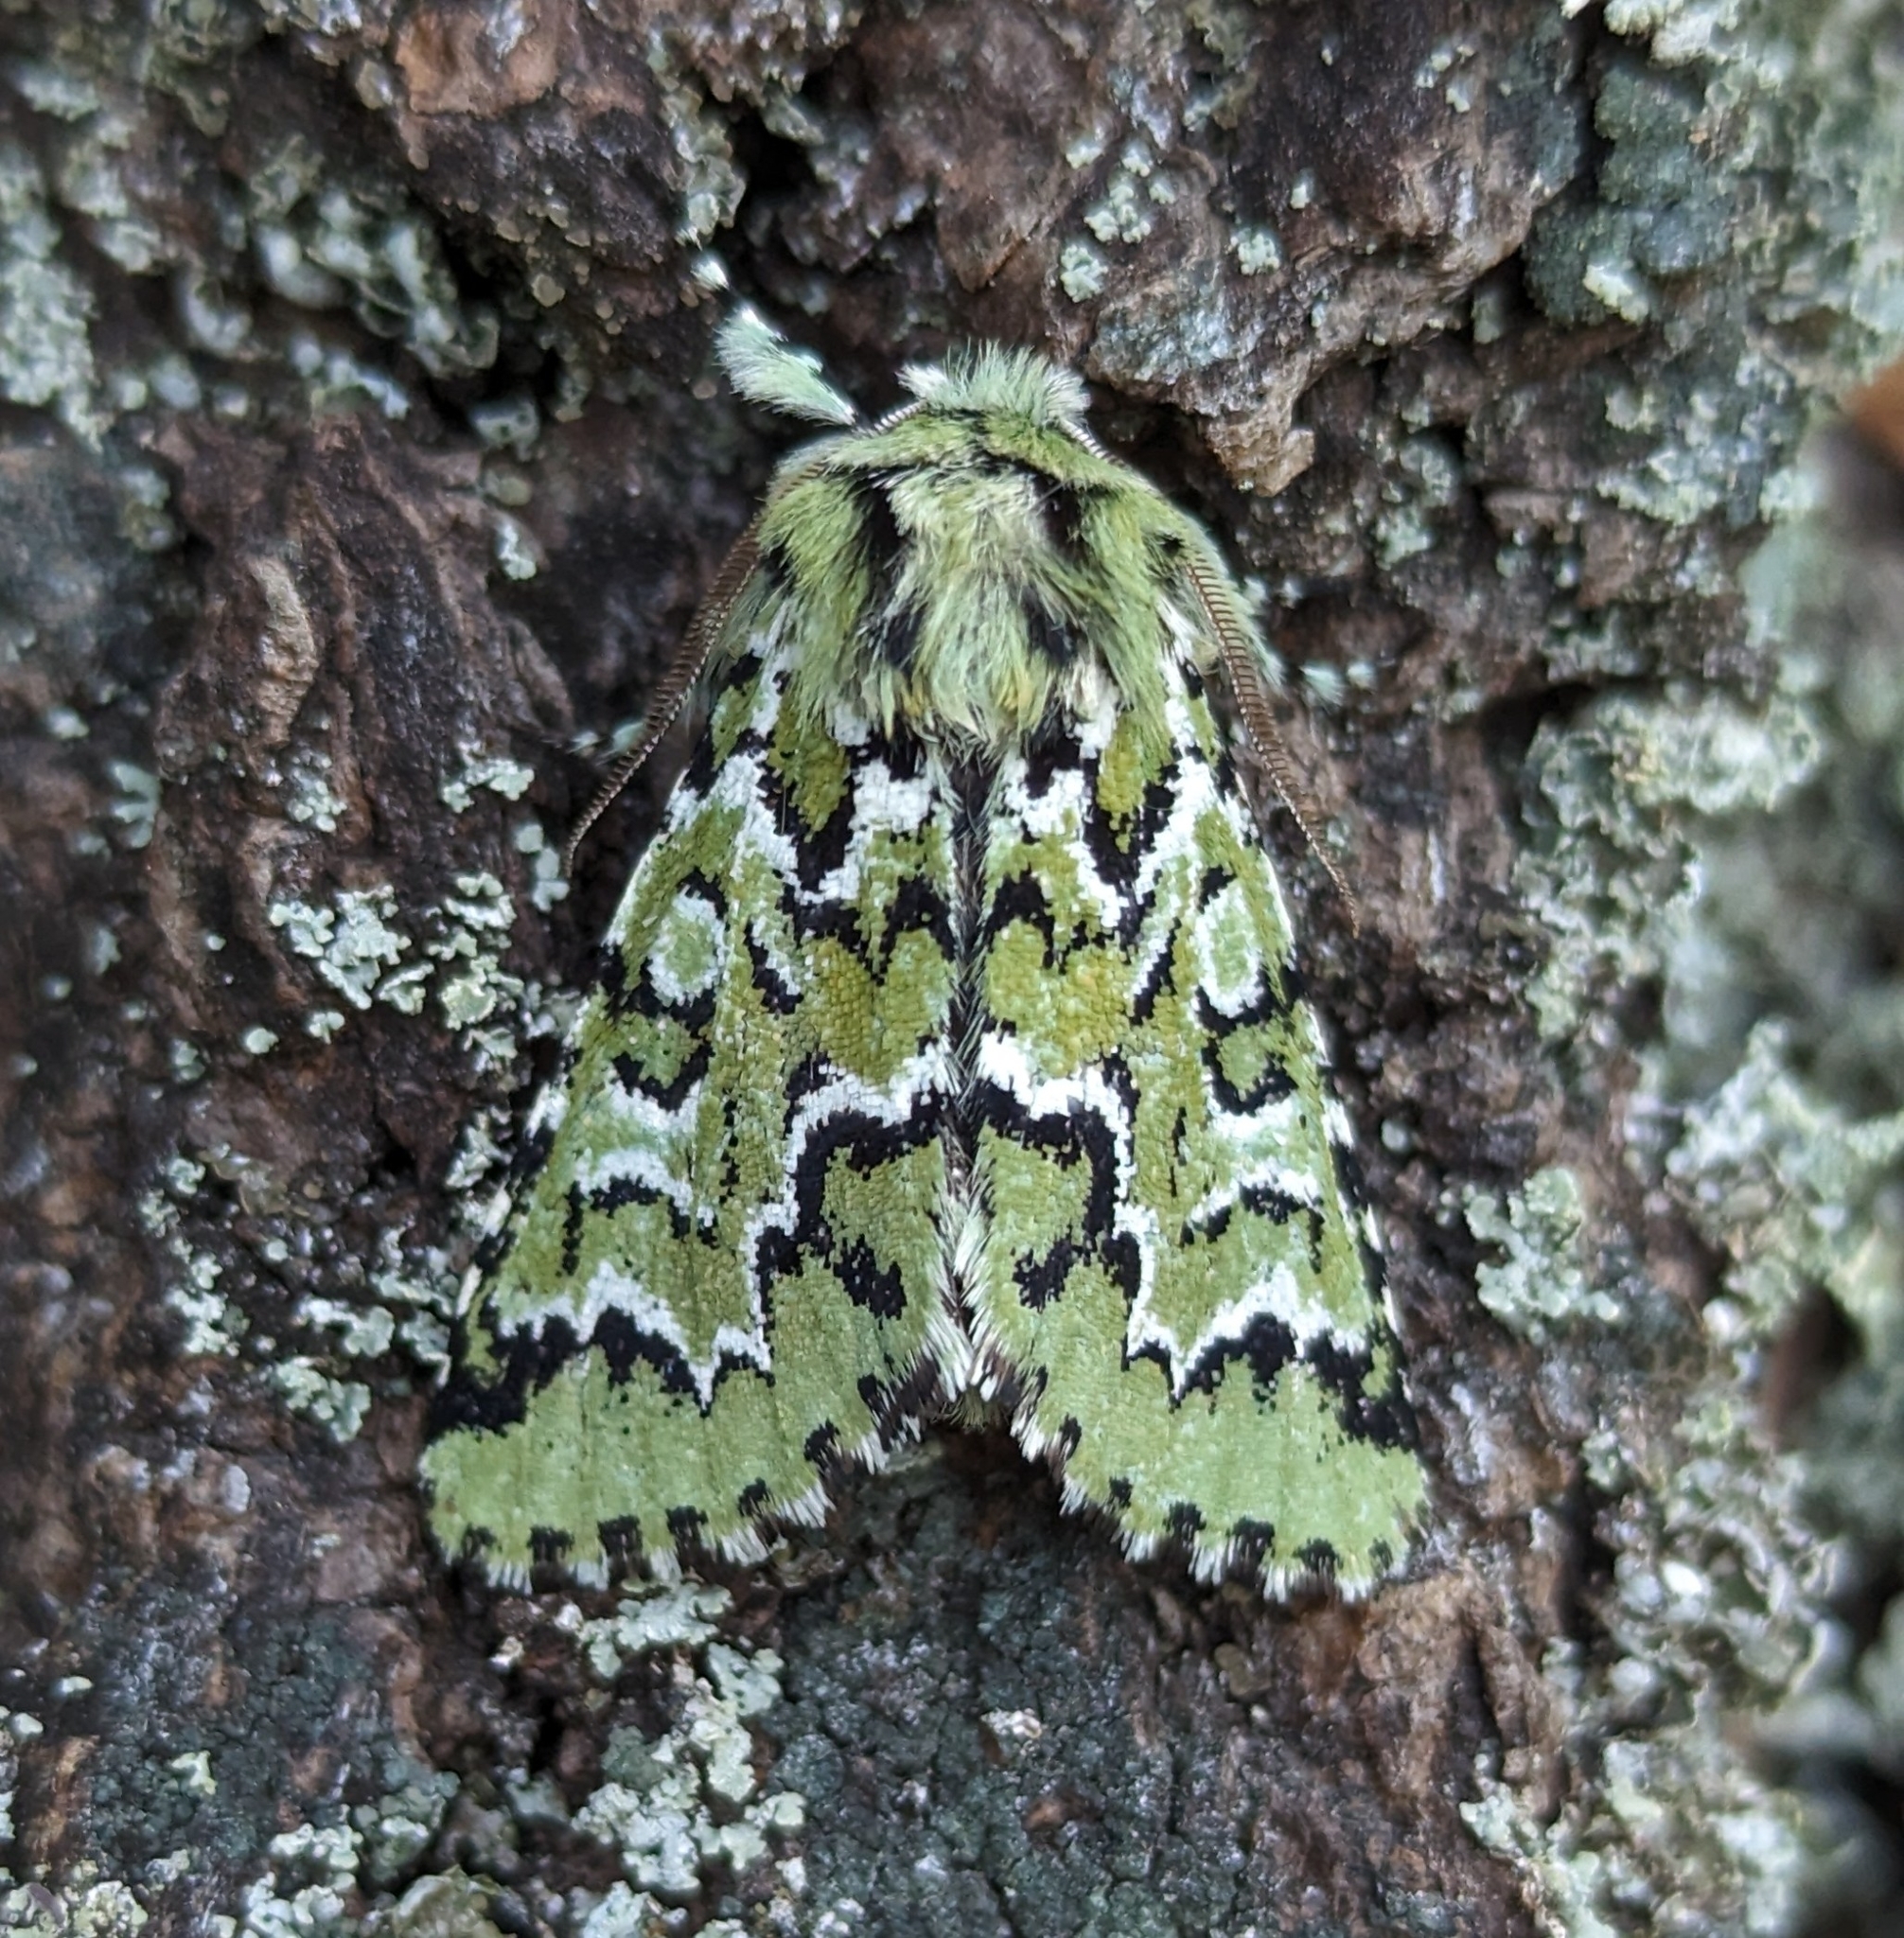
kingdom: Animalia
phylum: Arthropoda
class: Insecta
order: Lepidoptera
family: Noctuidae
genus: Feralia
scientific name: Feralia deceptiva
